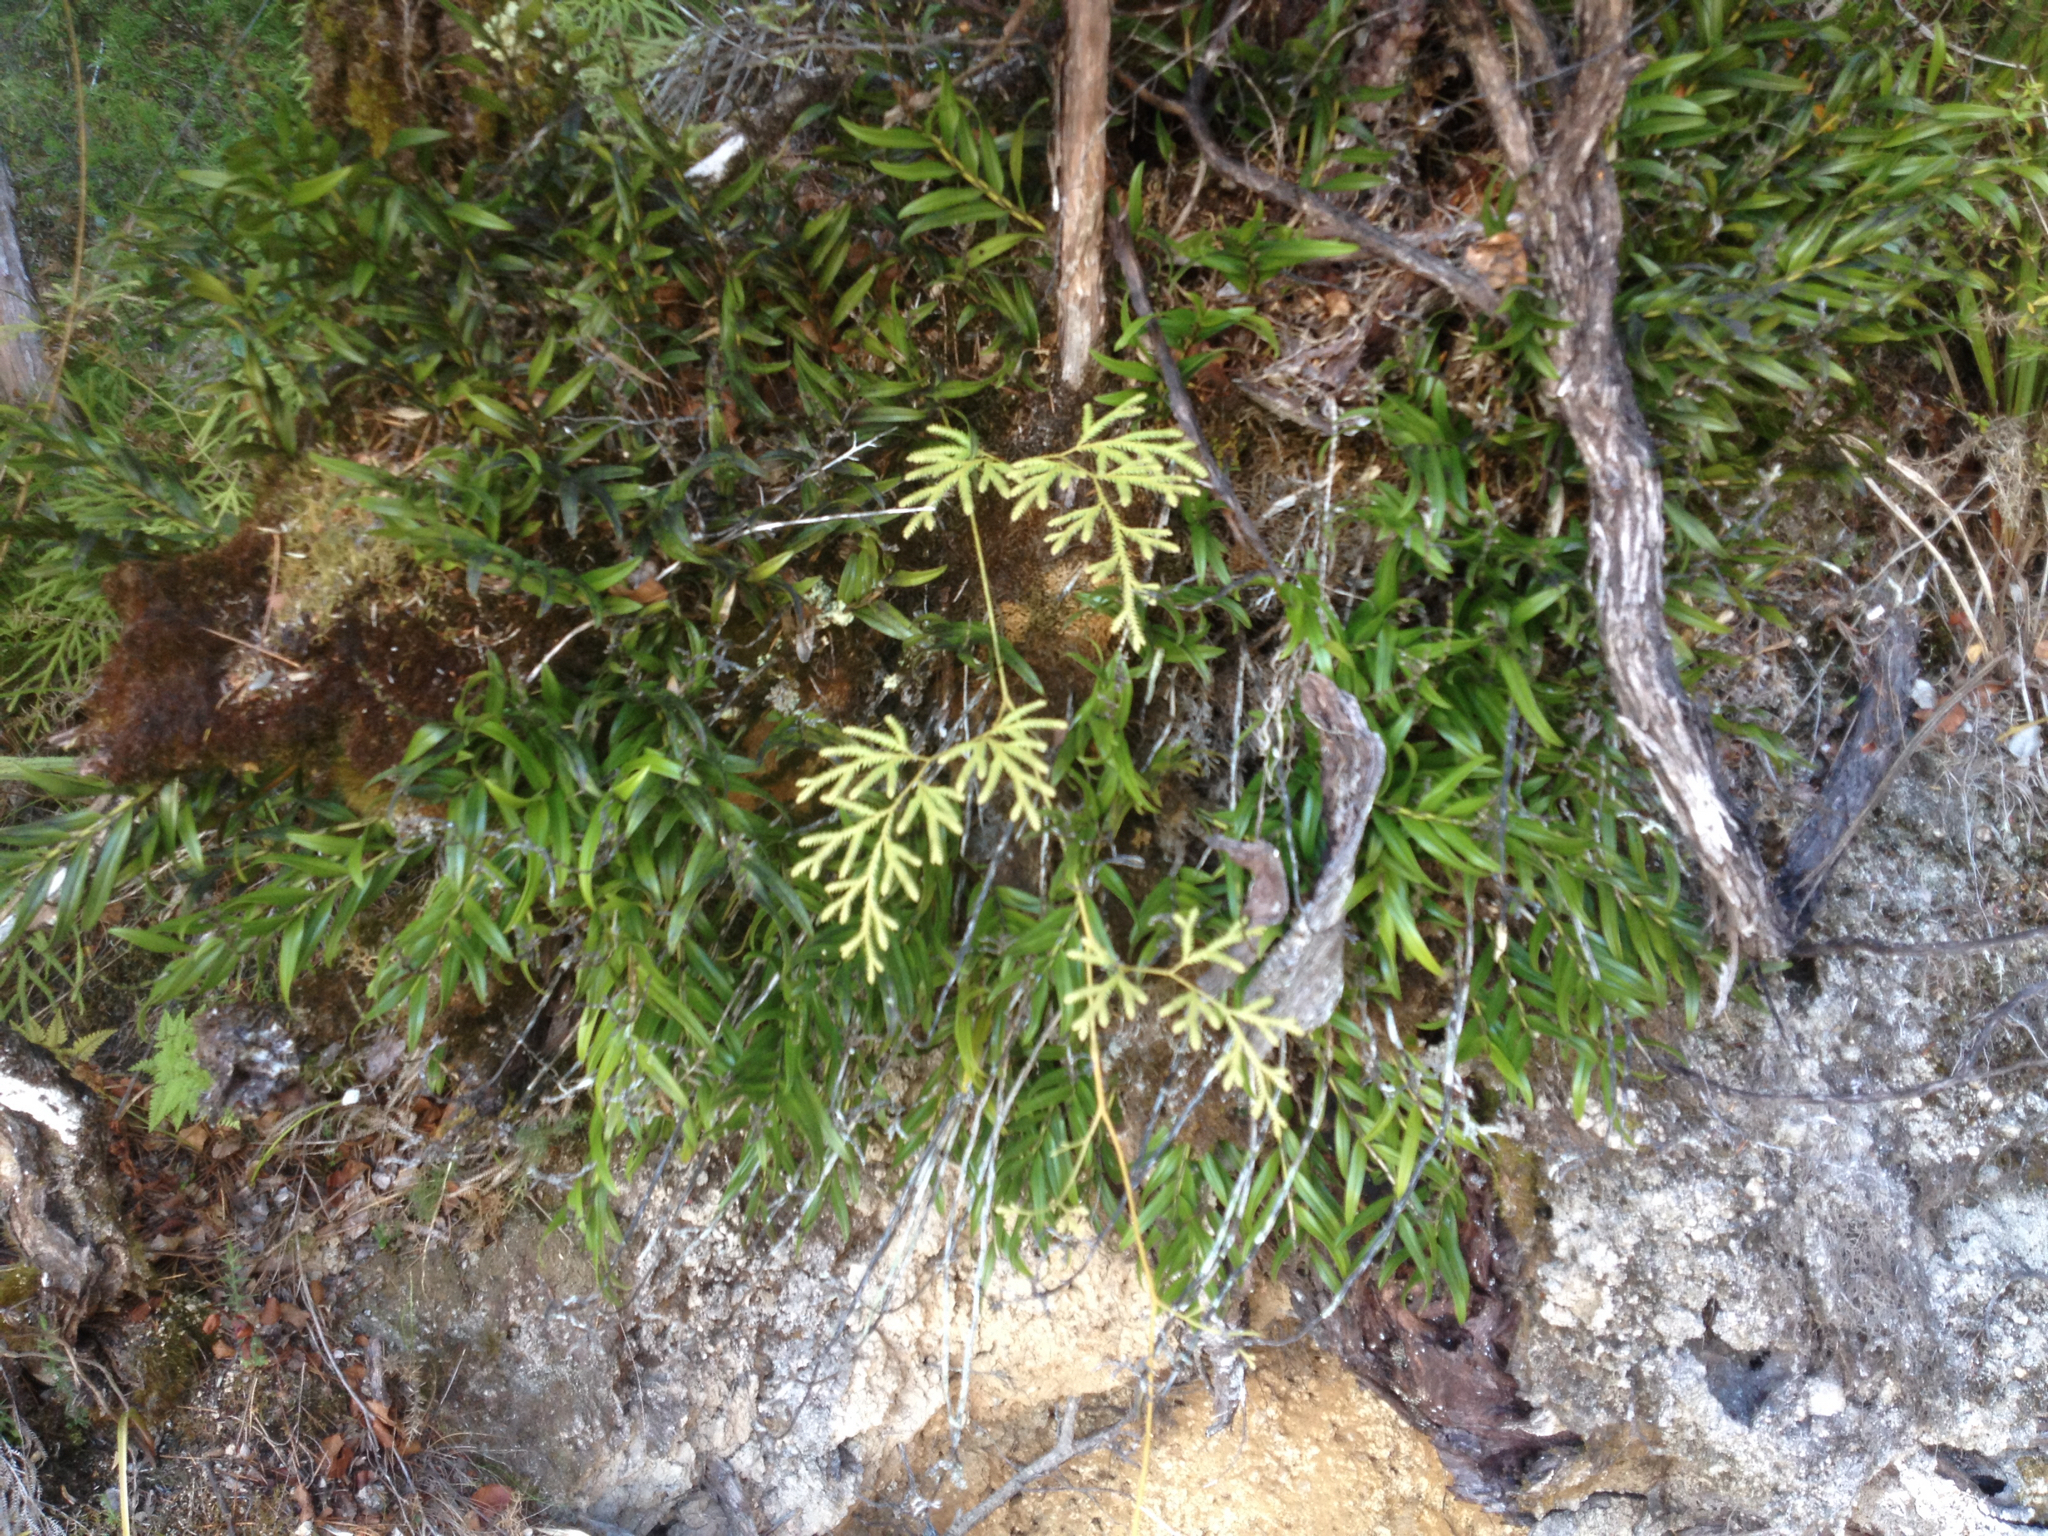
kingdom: Plantae
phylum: Tracheophyta
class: Liliopsida
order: Asparagales
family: Orchidaceae
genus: Earina
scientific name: Earina autumnalis
